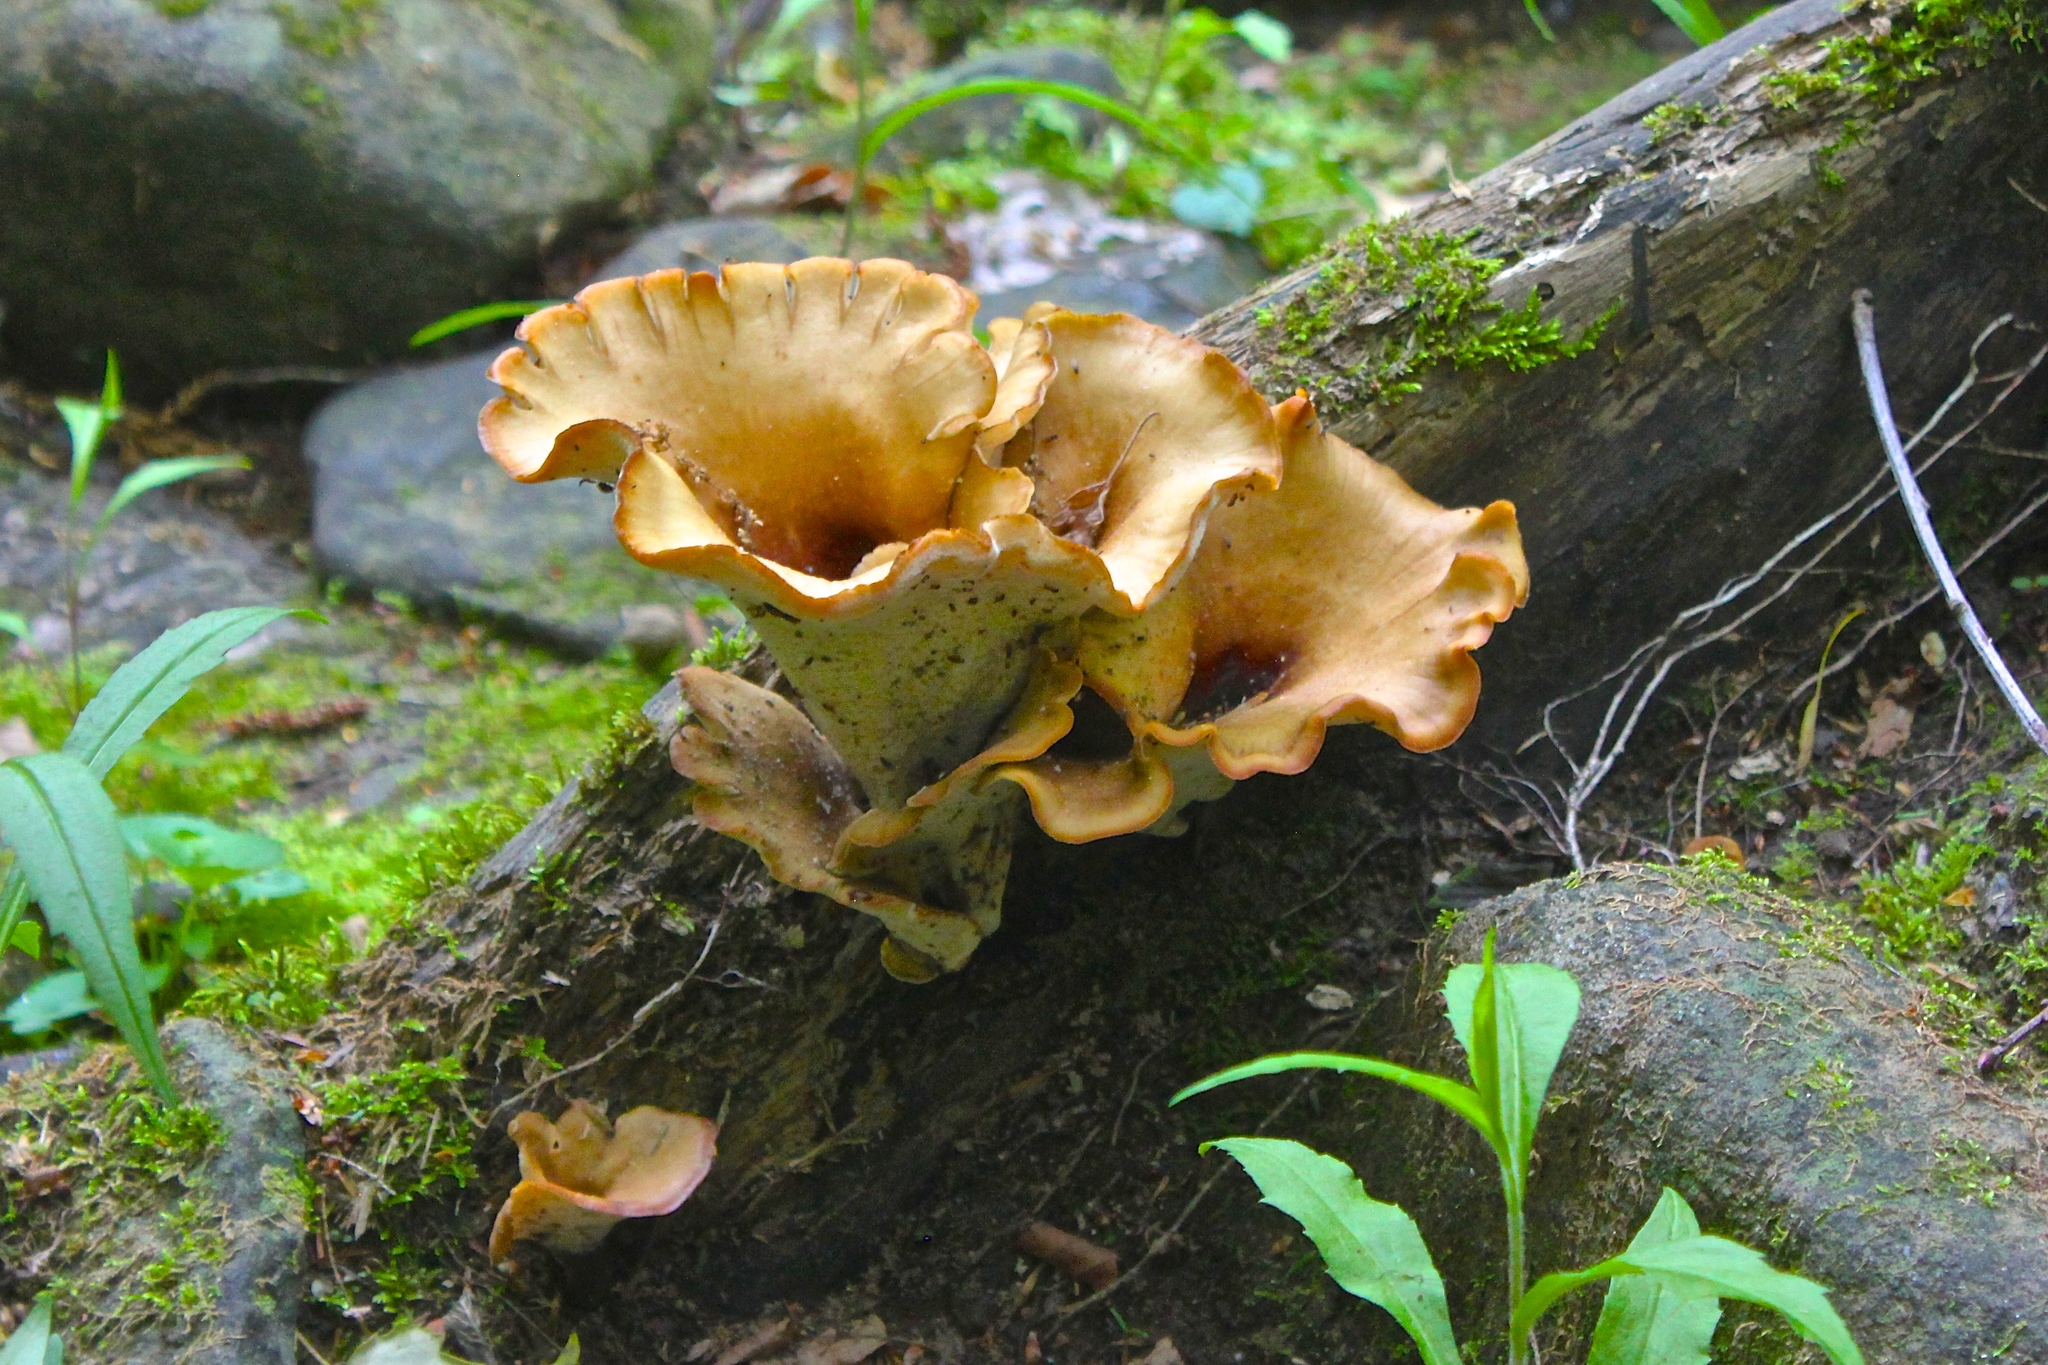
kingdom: Fungi
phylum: Basidiomycota
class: Agaricomycetes
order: Polyporales
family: Polyporaceae
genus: Picipes
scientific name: Picipes melanopus
